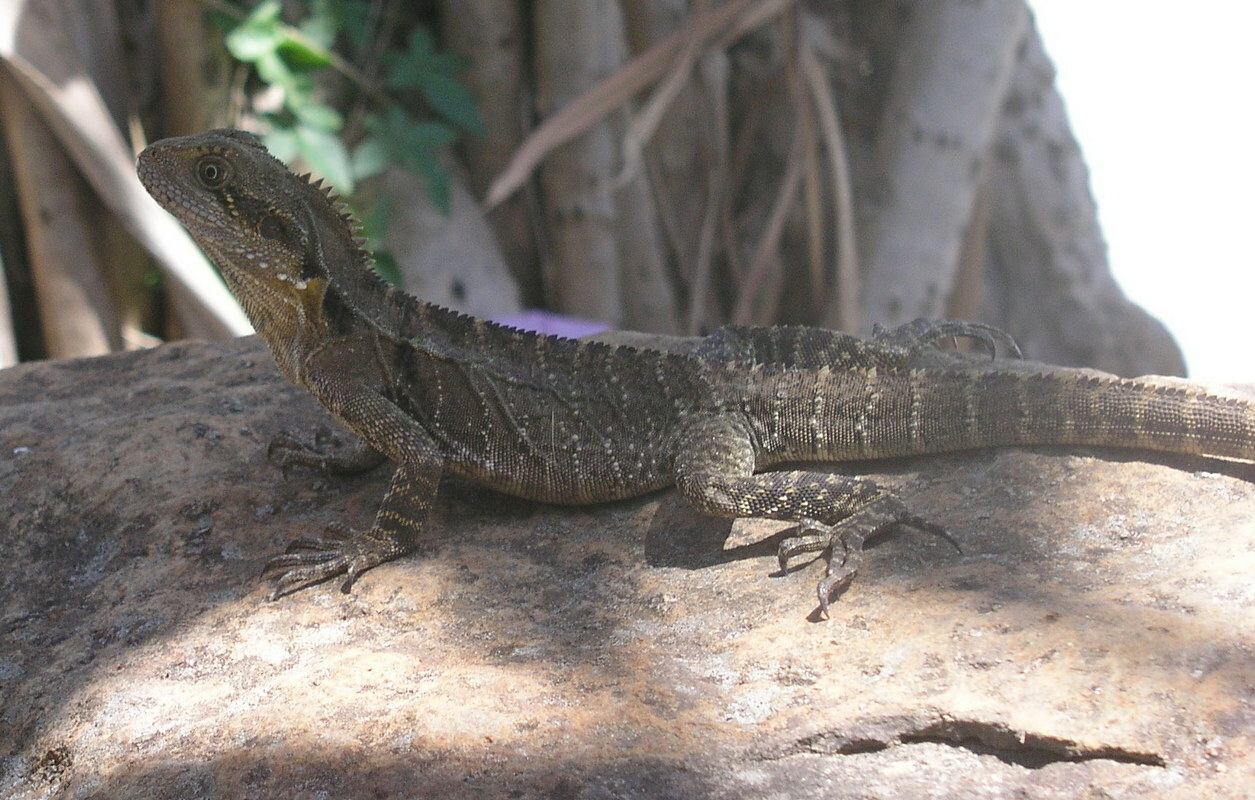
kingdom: Animalia
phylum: Chordata
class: Squamata
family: Agamidae
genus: Intellagama
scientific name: Intellagama lesueurii
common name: Eastern water dragon
